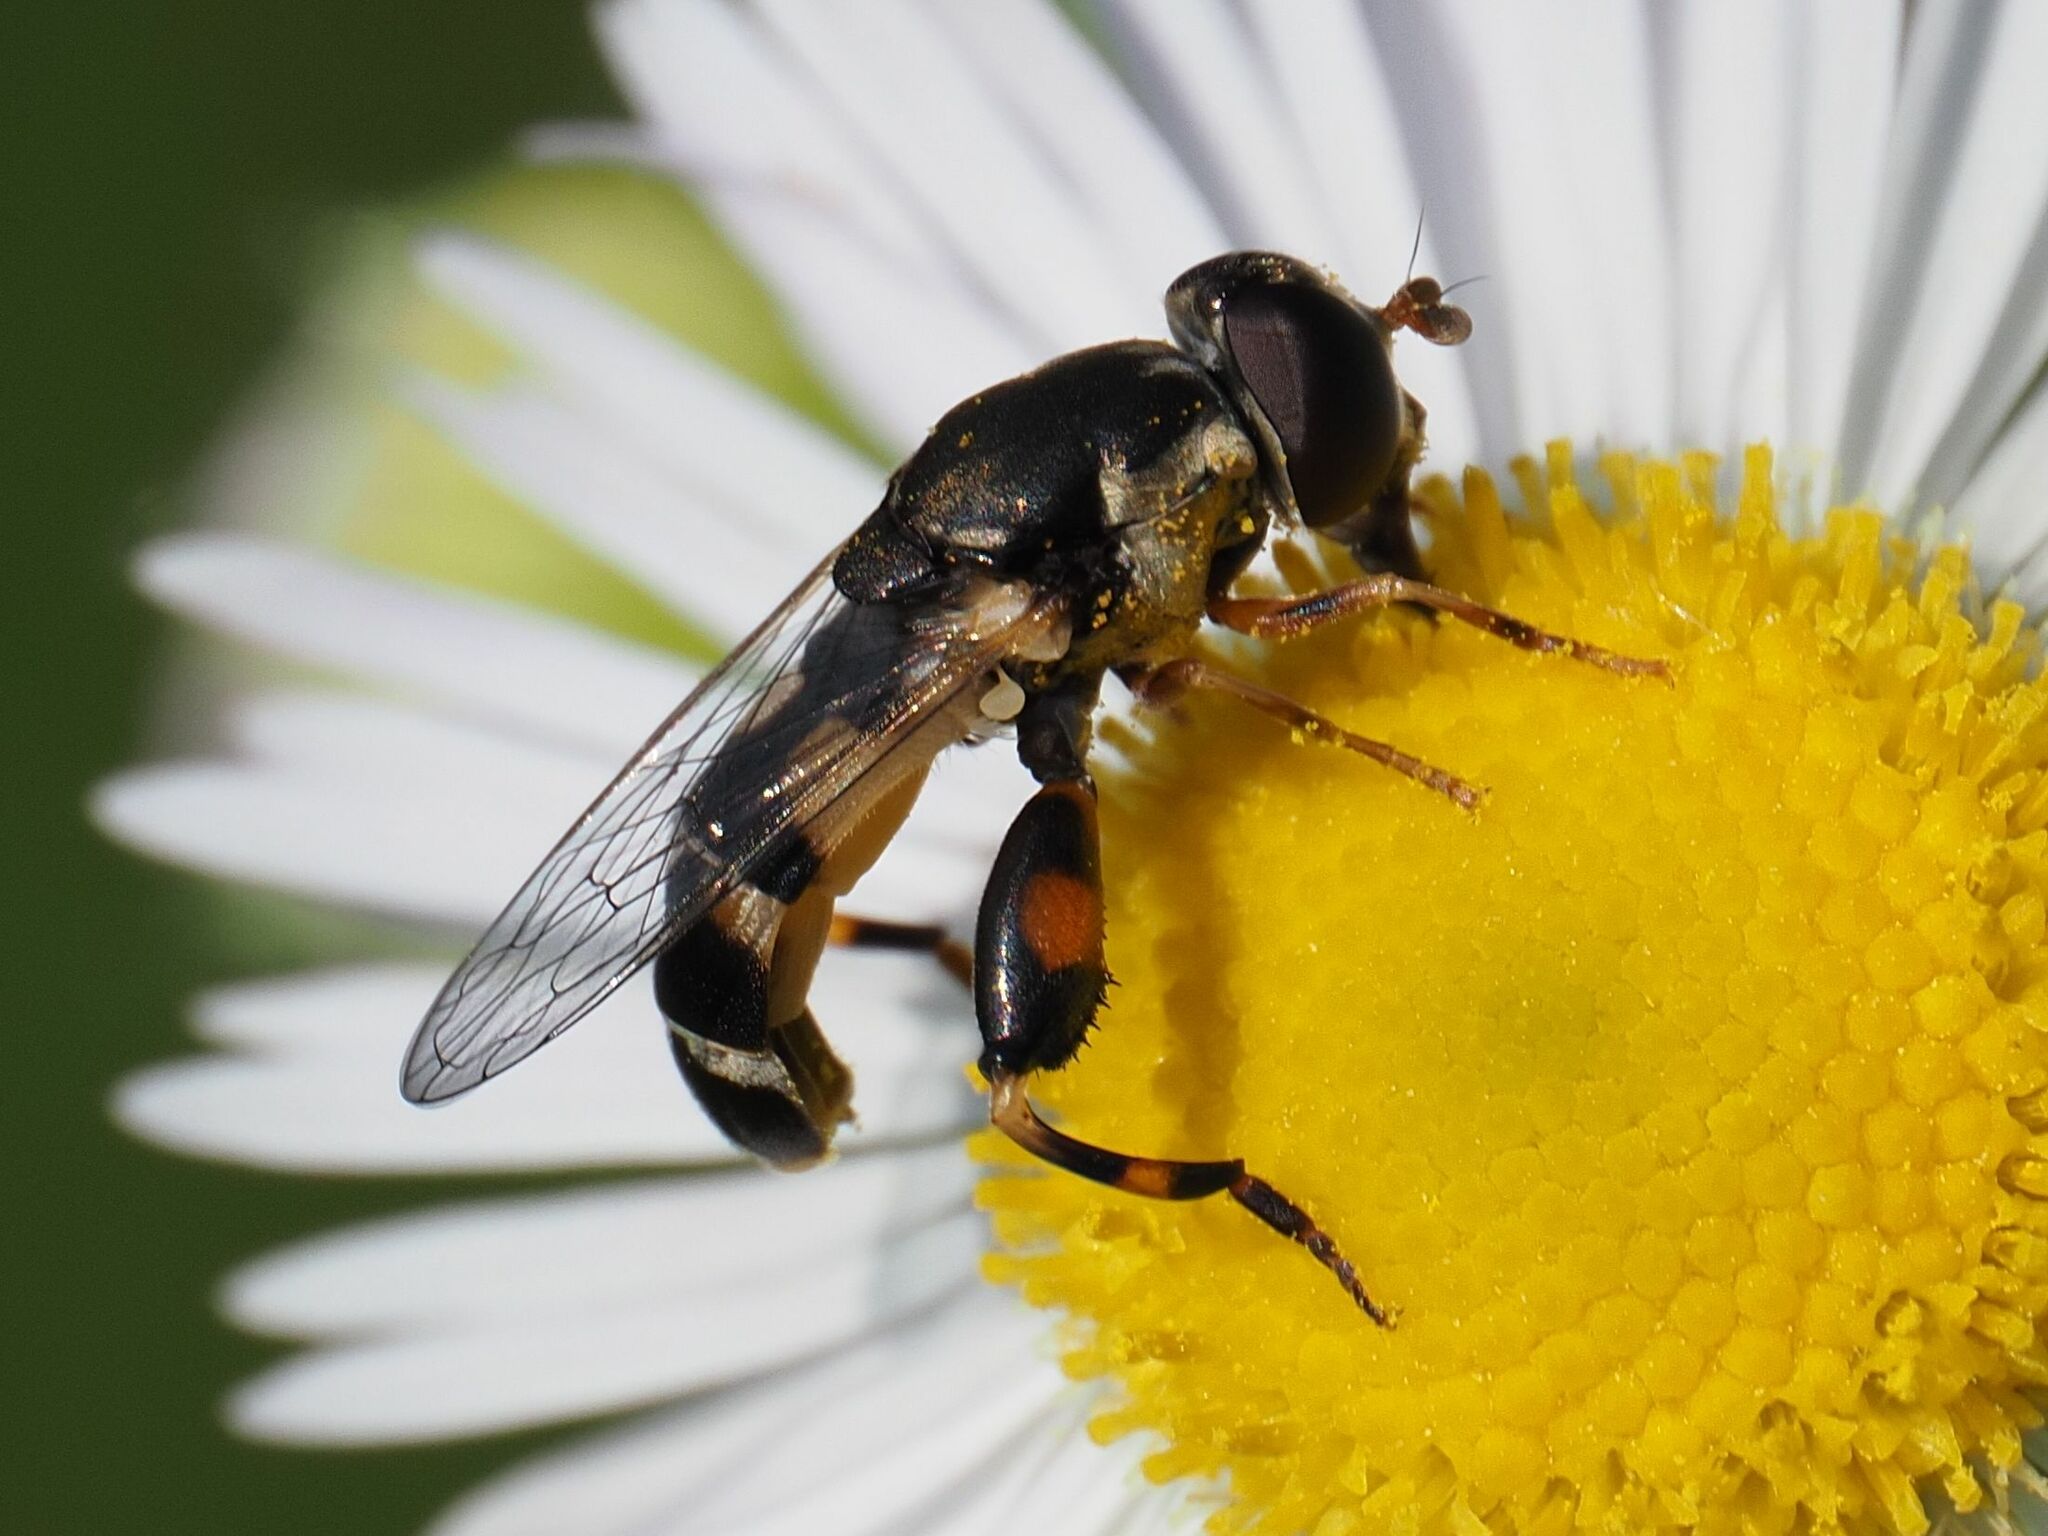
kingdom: Animalia
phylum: Arthropoda
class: Insecta
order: Diptera
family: Syrphidae
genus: Syritta
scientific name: Syritta pipiens
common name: Hover fly
